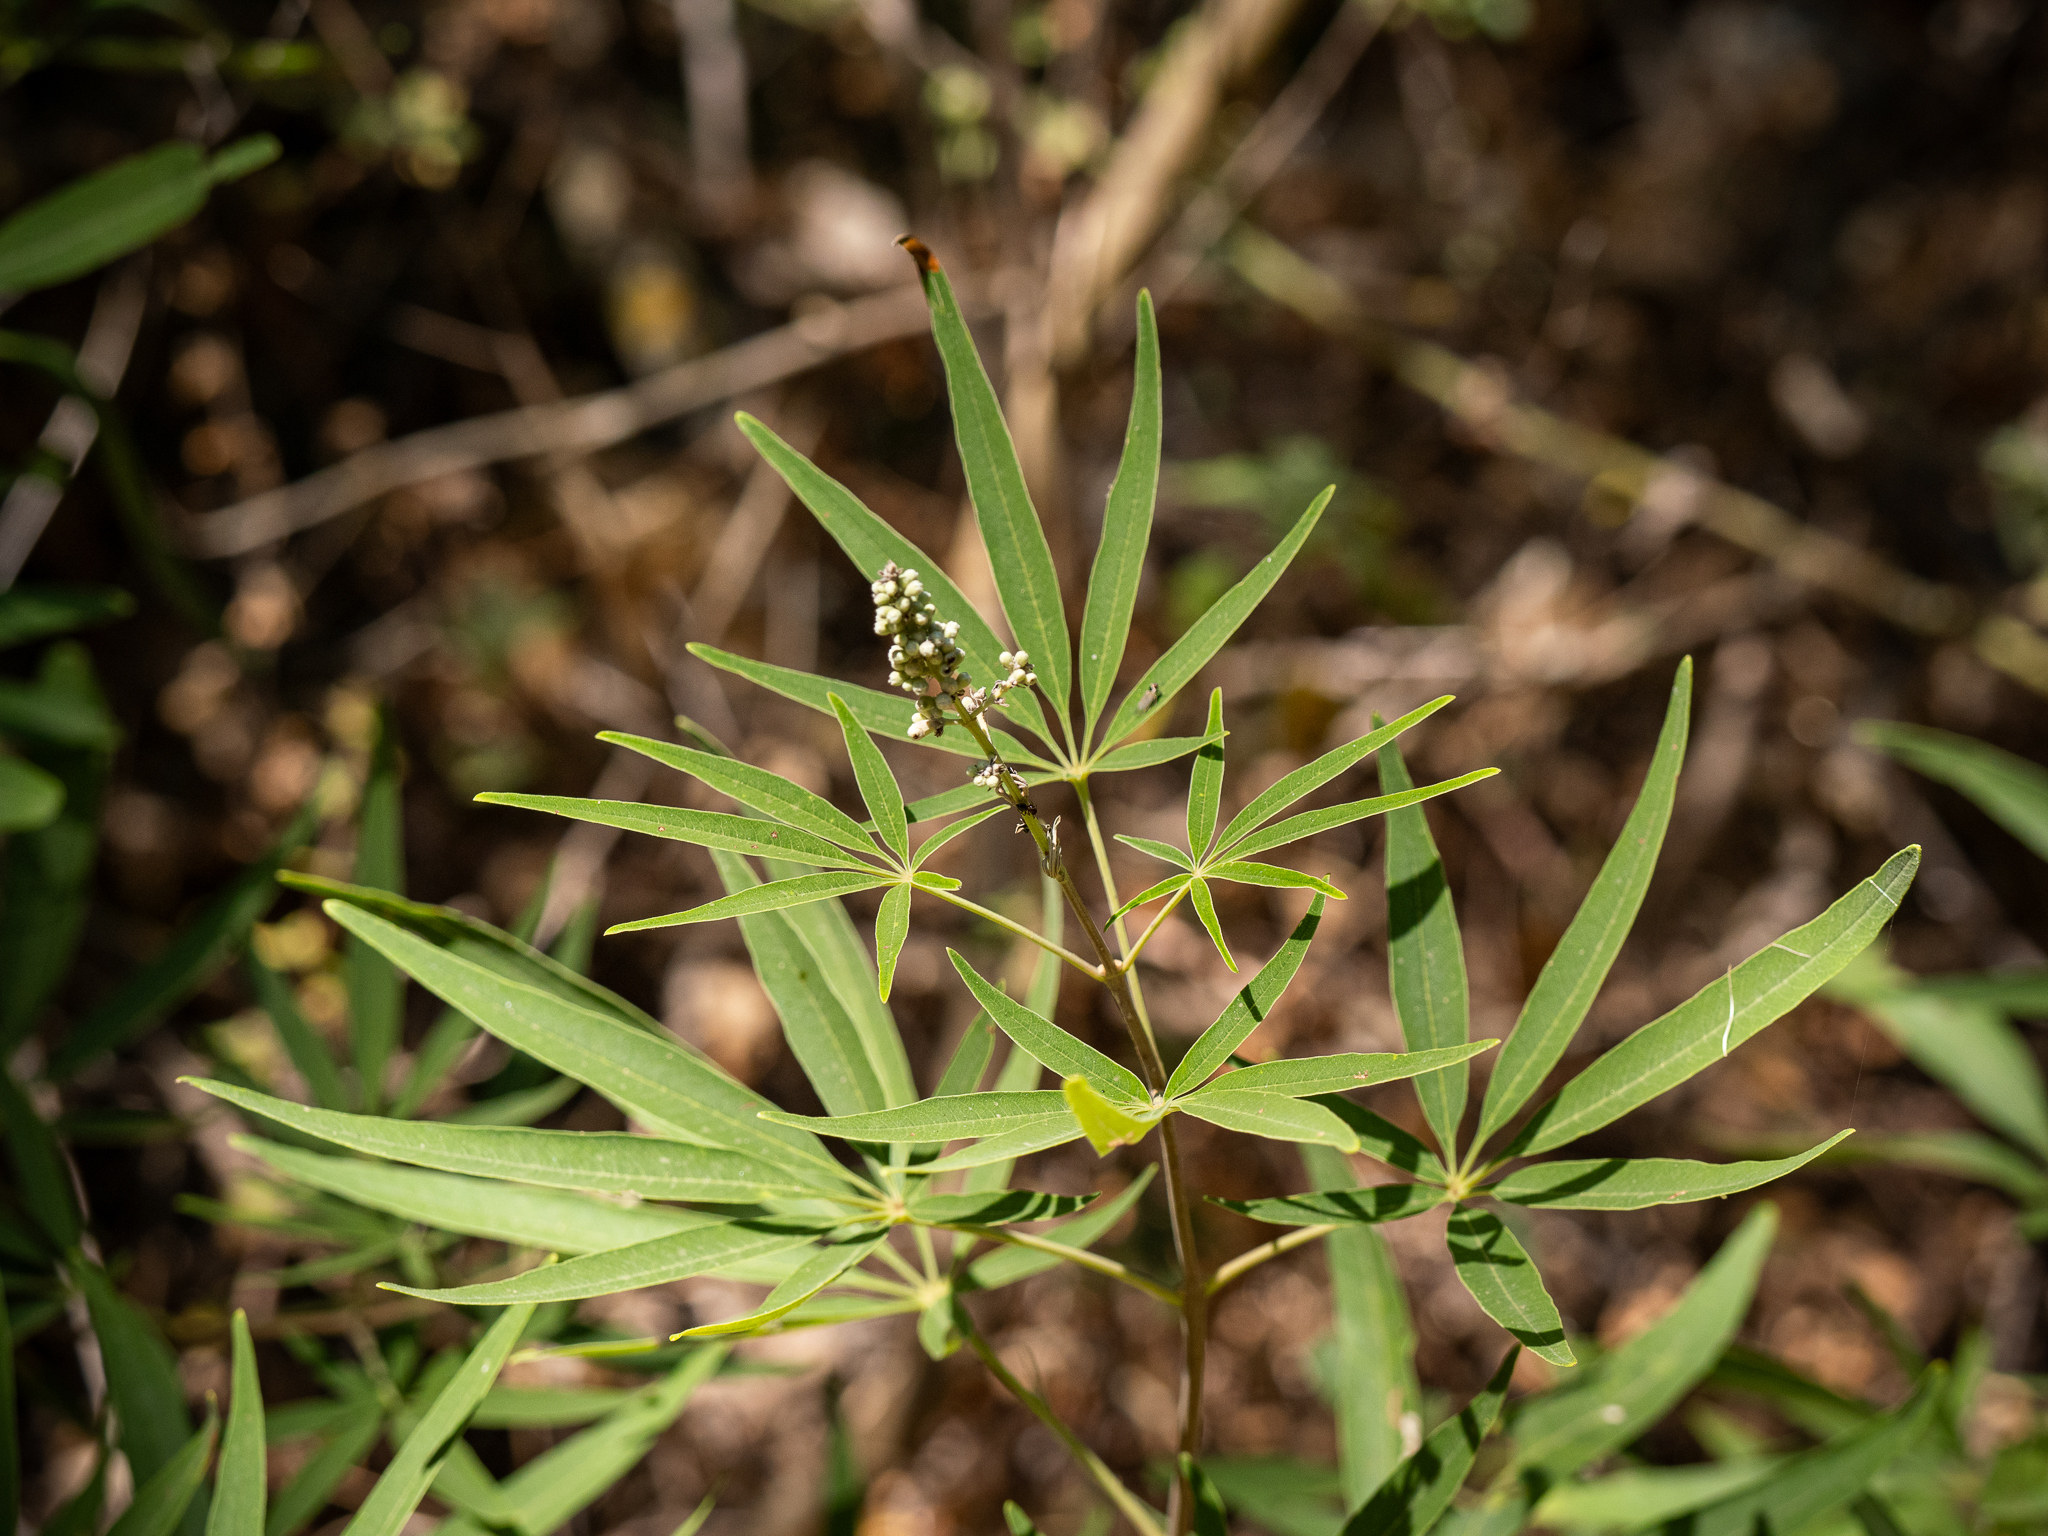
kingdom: Plantae
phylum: Tracheophyta
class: Magnoliopsida
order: Lamiales
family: Lamiaceae
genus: Vitex
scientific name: Vitex agnus-castus
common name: Chasteberry
